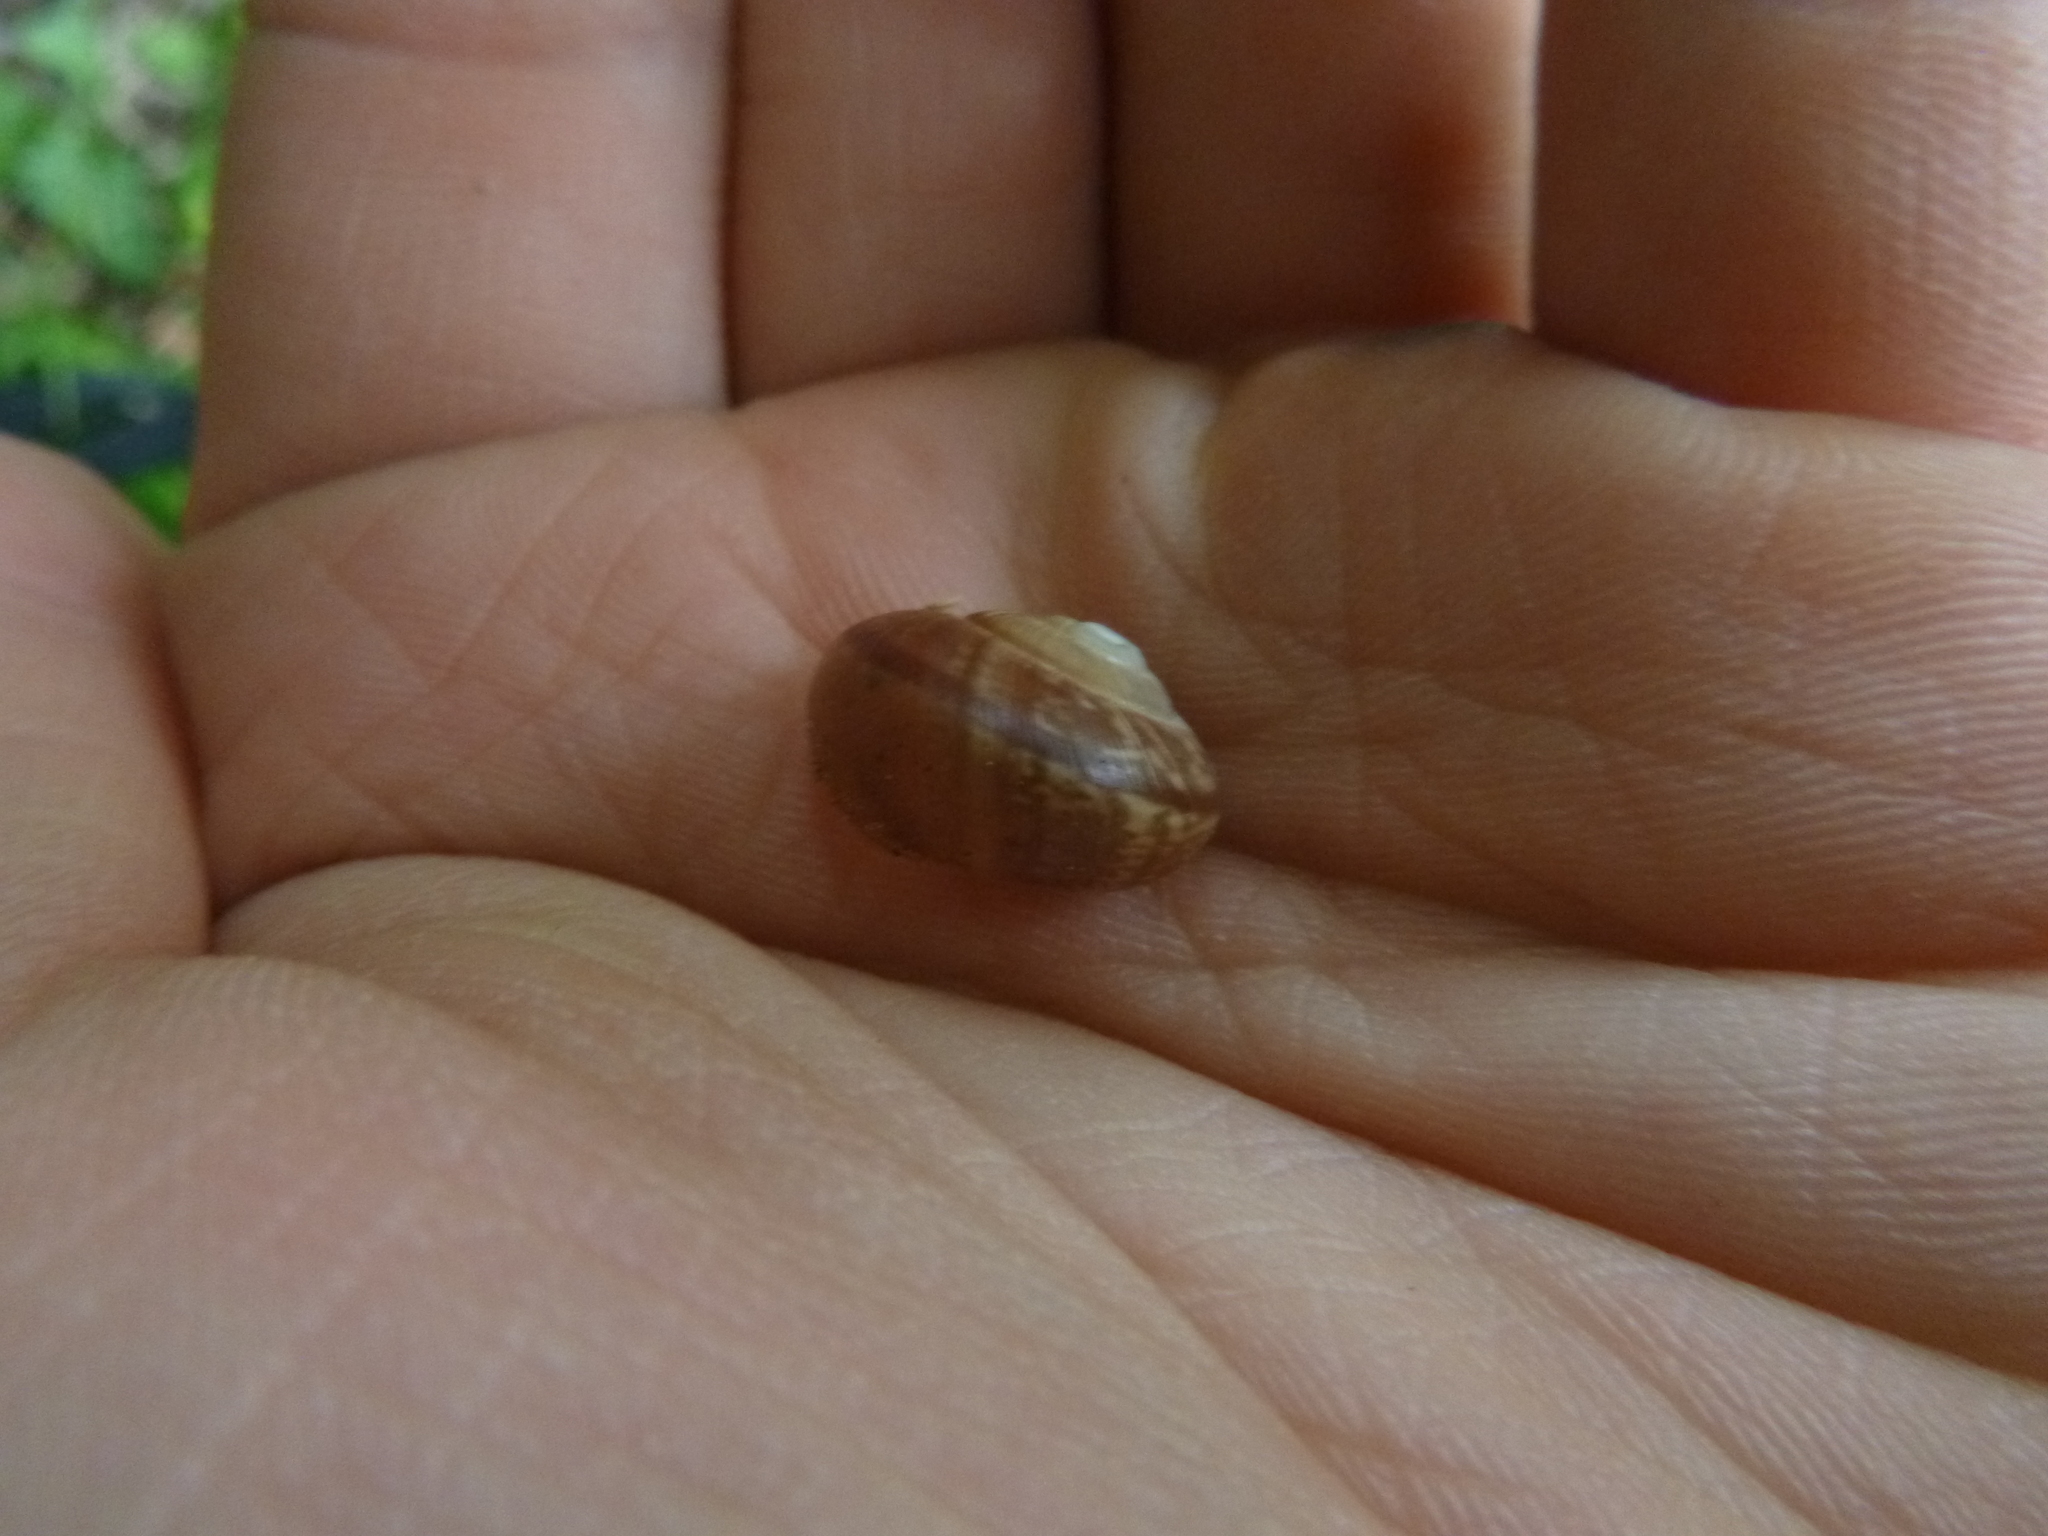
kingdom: Animalia
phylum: Mollusca
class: Gastropoda
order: Stylommatophora
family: Helicidae
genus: Arianta
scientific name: Arianta arbustorum
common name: Copse snail
